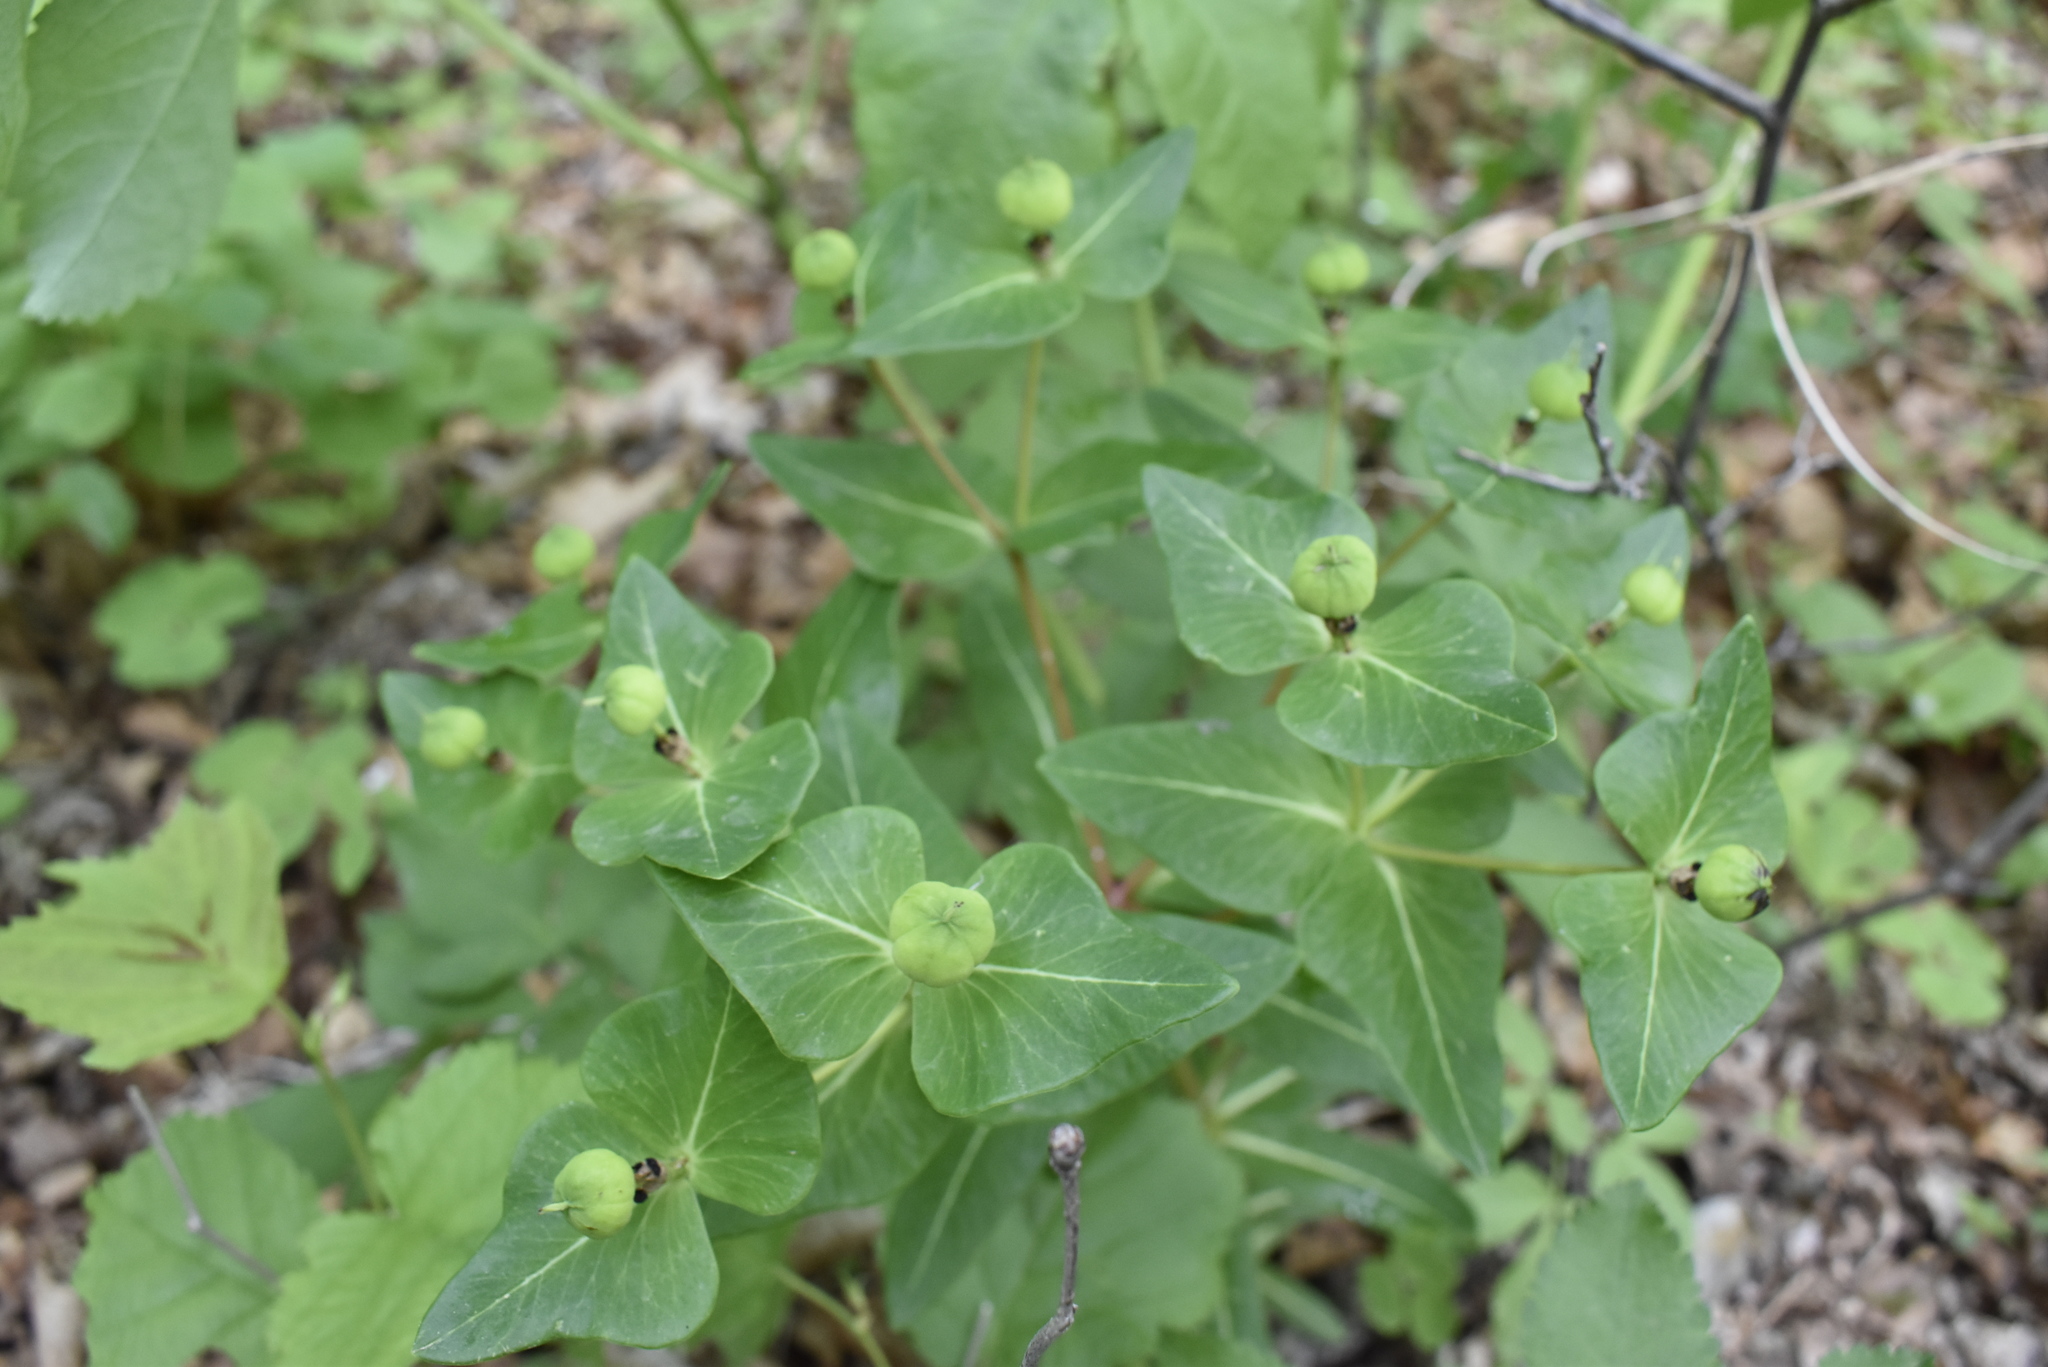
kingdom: Plantae
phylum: Tracheophyta
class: Magnoliopsida
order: Malpighiales
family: Euphorbiaceae
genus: Euphorbia
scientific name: Euphorbia hylonoma
